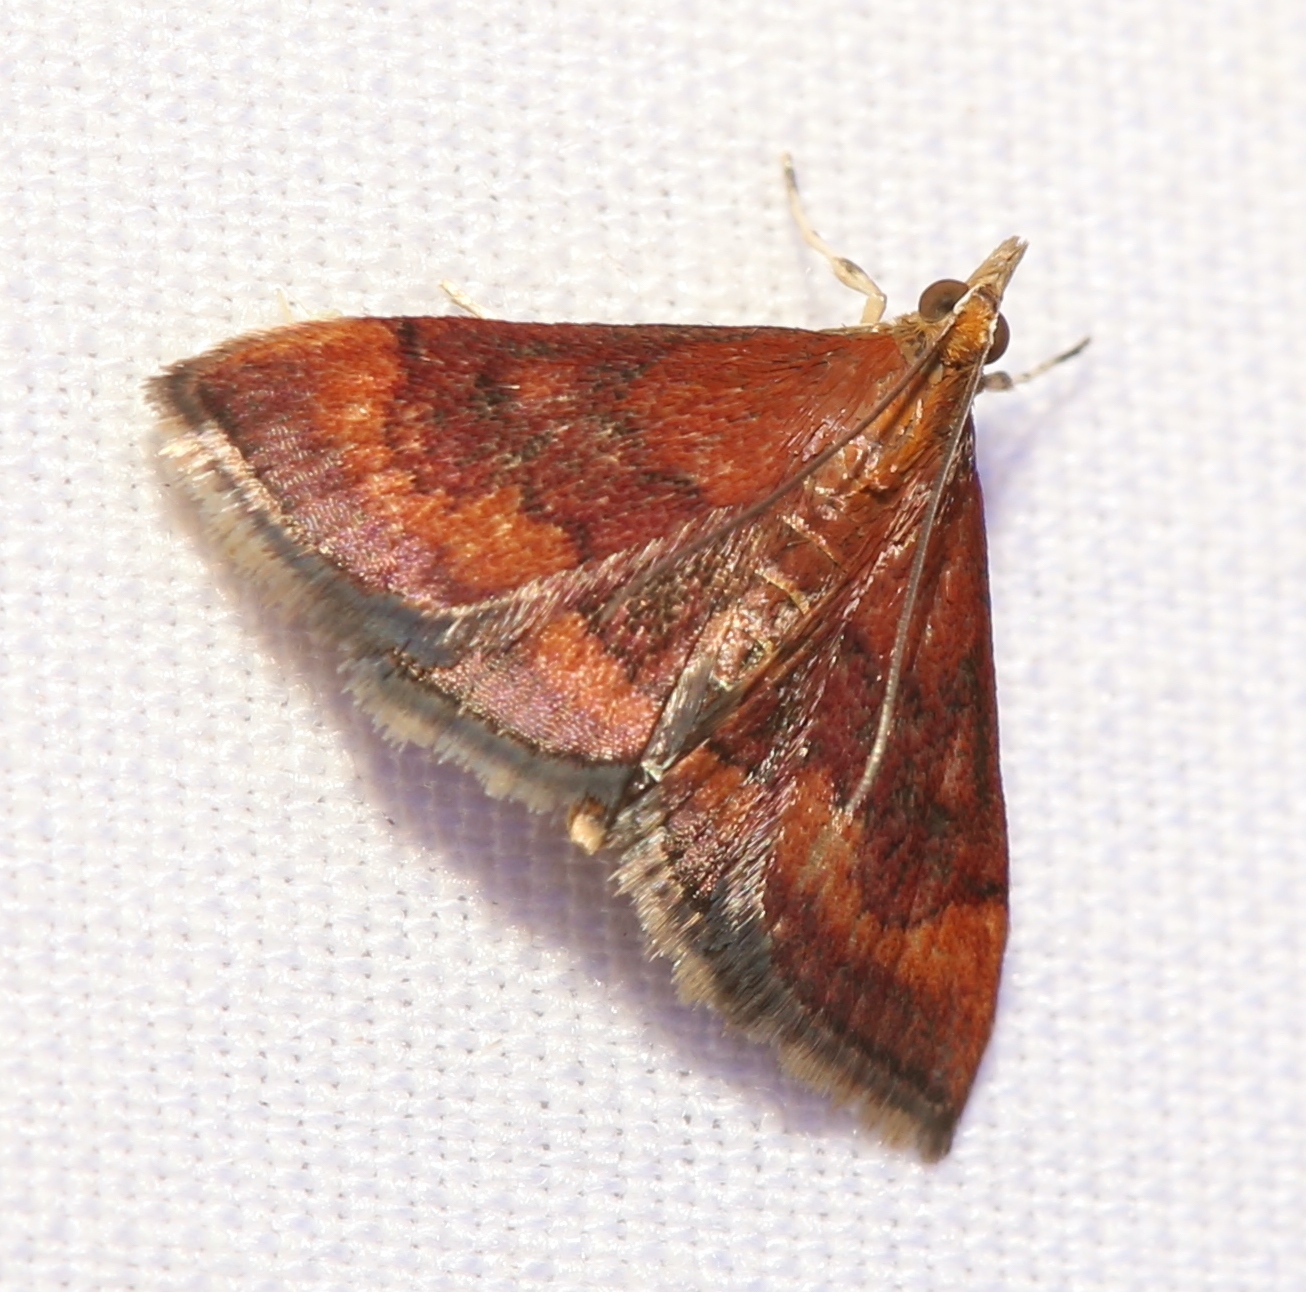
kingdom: Animalia
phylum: Arthropoda
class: Insecta
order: Lepidoptera
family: Crambidae
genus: Pyrausta
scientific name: Pyrausta rubricalis
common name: Variable reddish pyrausta
